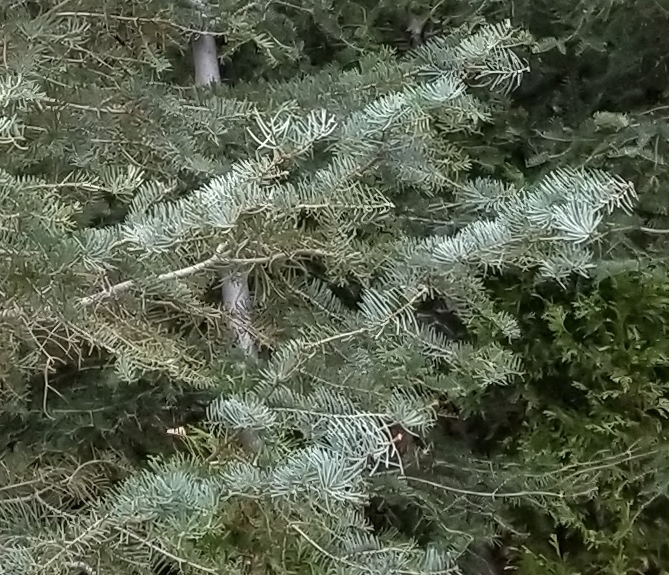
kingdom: Plantae
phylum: Tracheophyta
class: Pinopsida
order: Pinales
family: Pinaceae
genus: Abies
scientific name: Abies concolor
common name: Colorado fir
